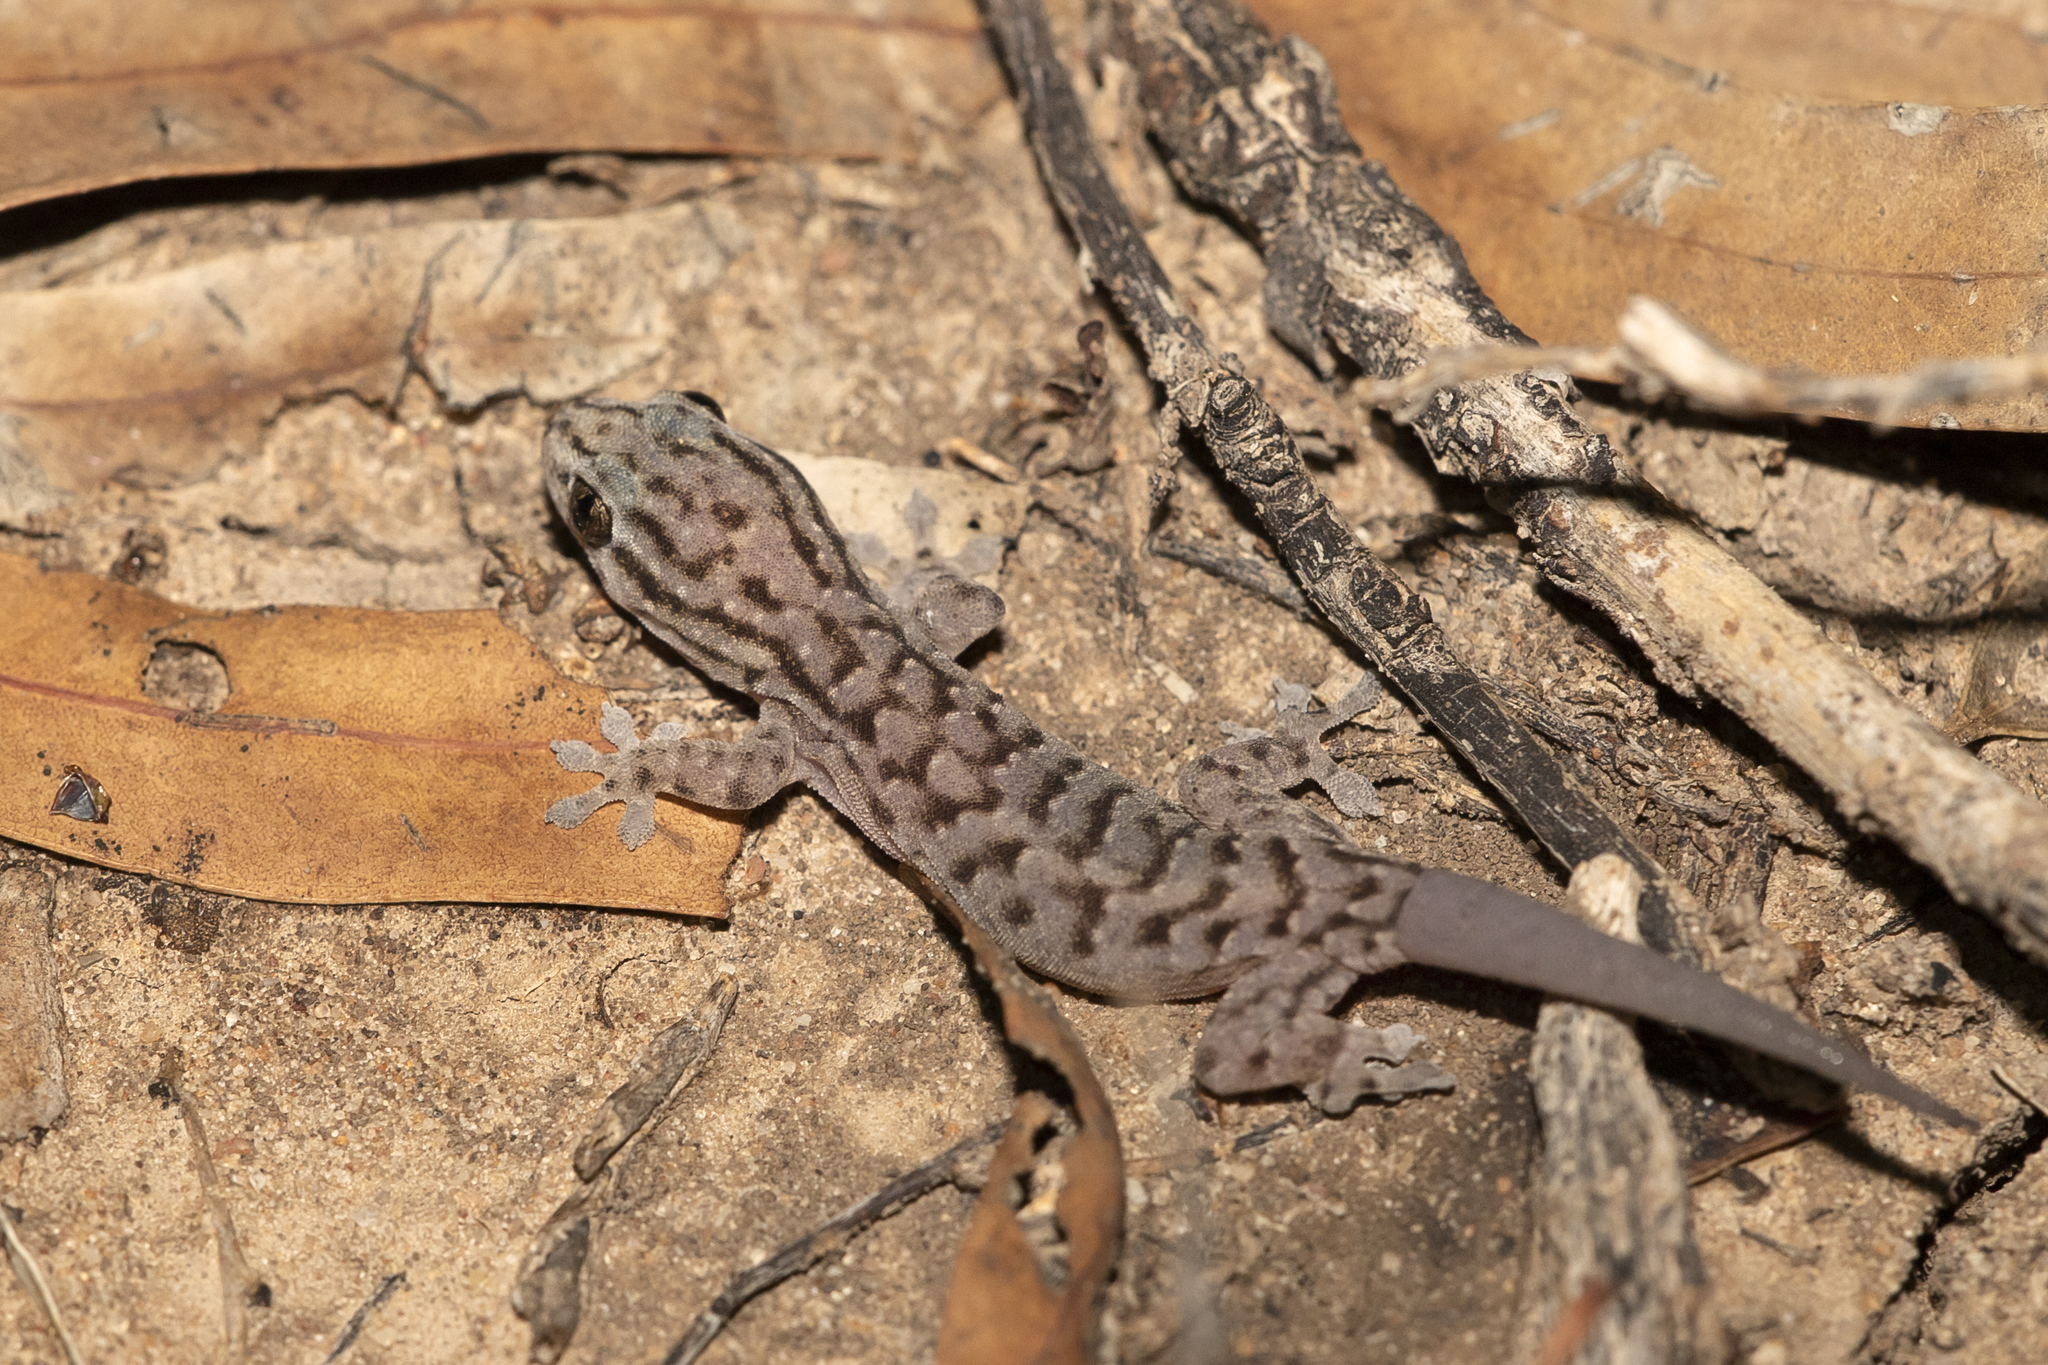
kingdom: Animalia
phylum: Chordata
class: Squamata
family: Gekkonidae
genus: Gehyra
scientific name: Gehyra versicolor
